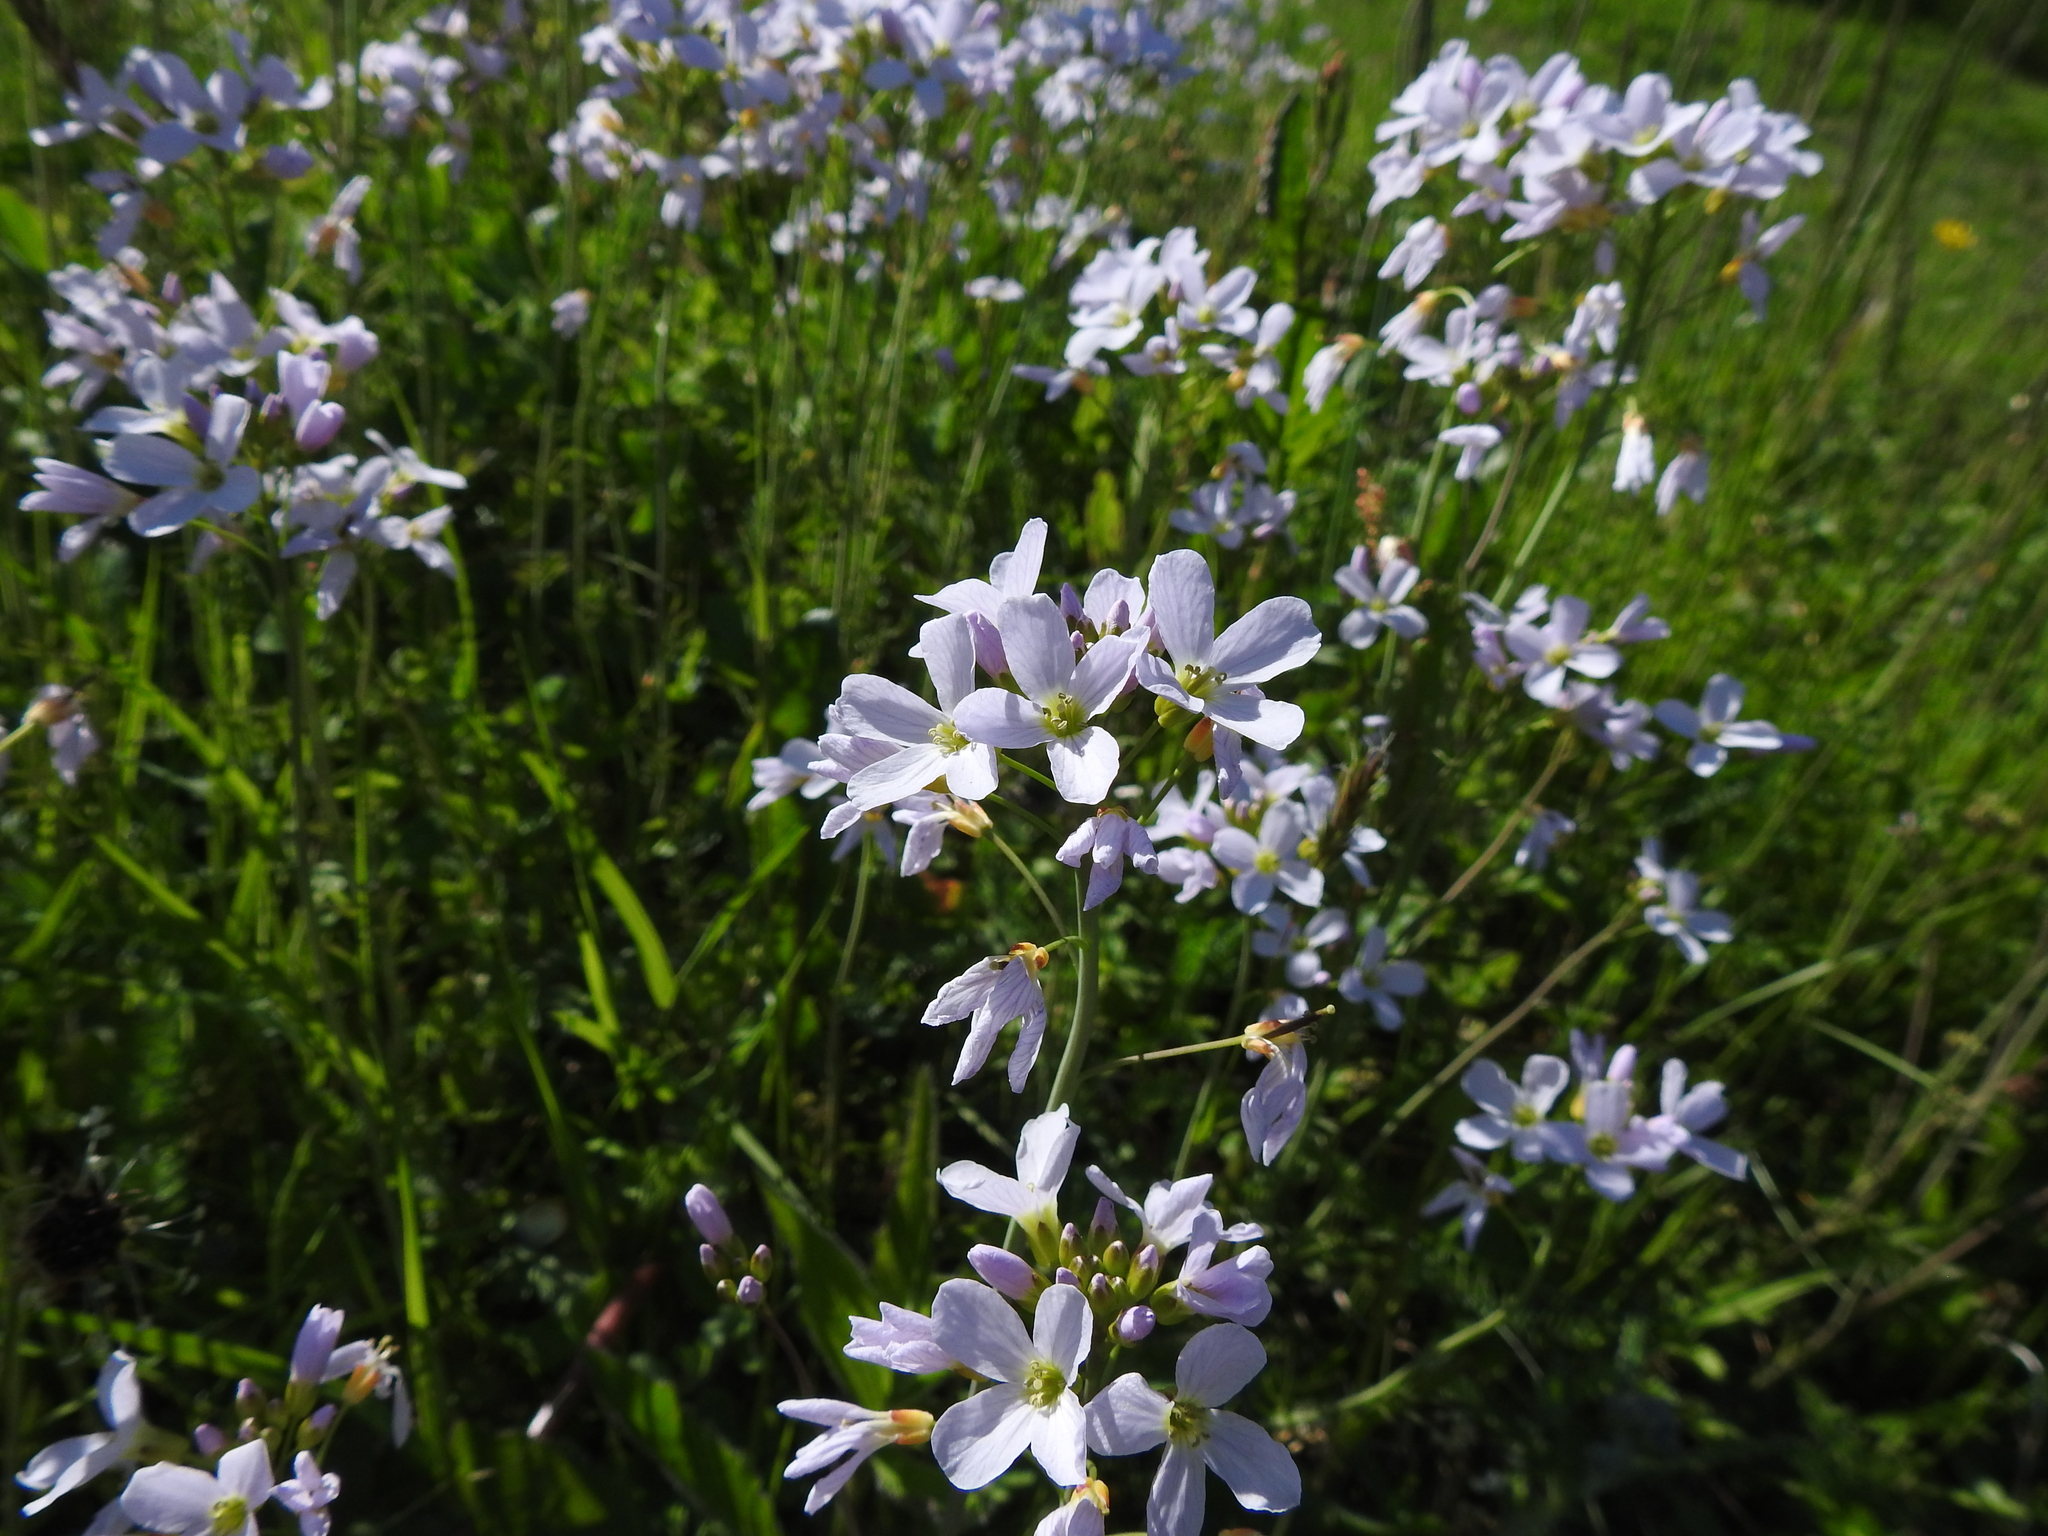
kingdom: Plantae
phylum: Tracheophyta
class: Magnoliopsida
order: Brassicales
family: Brassicaceae
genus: Cardamine
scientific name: Cardamine pratensis
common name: Cuckoo flower
